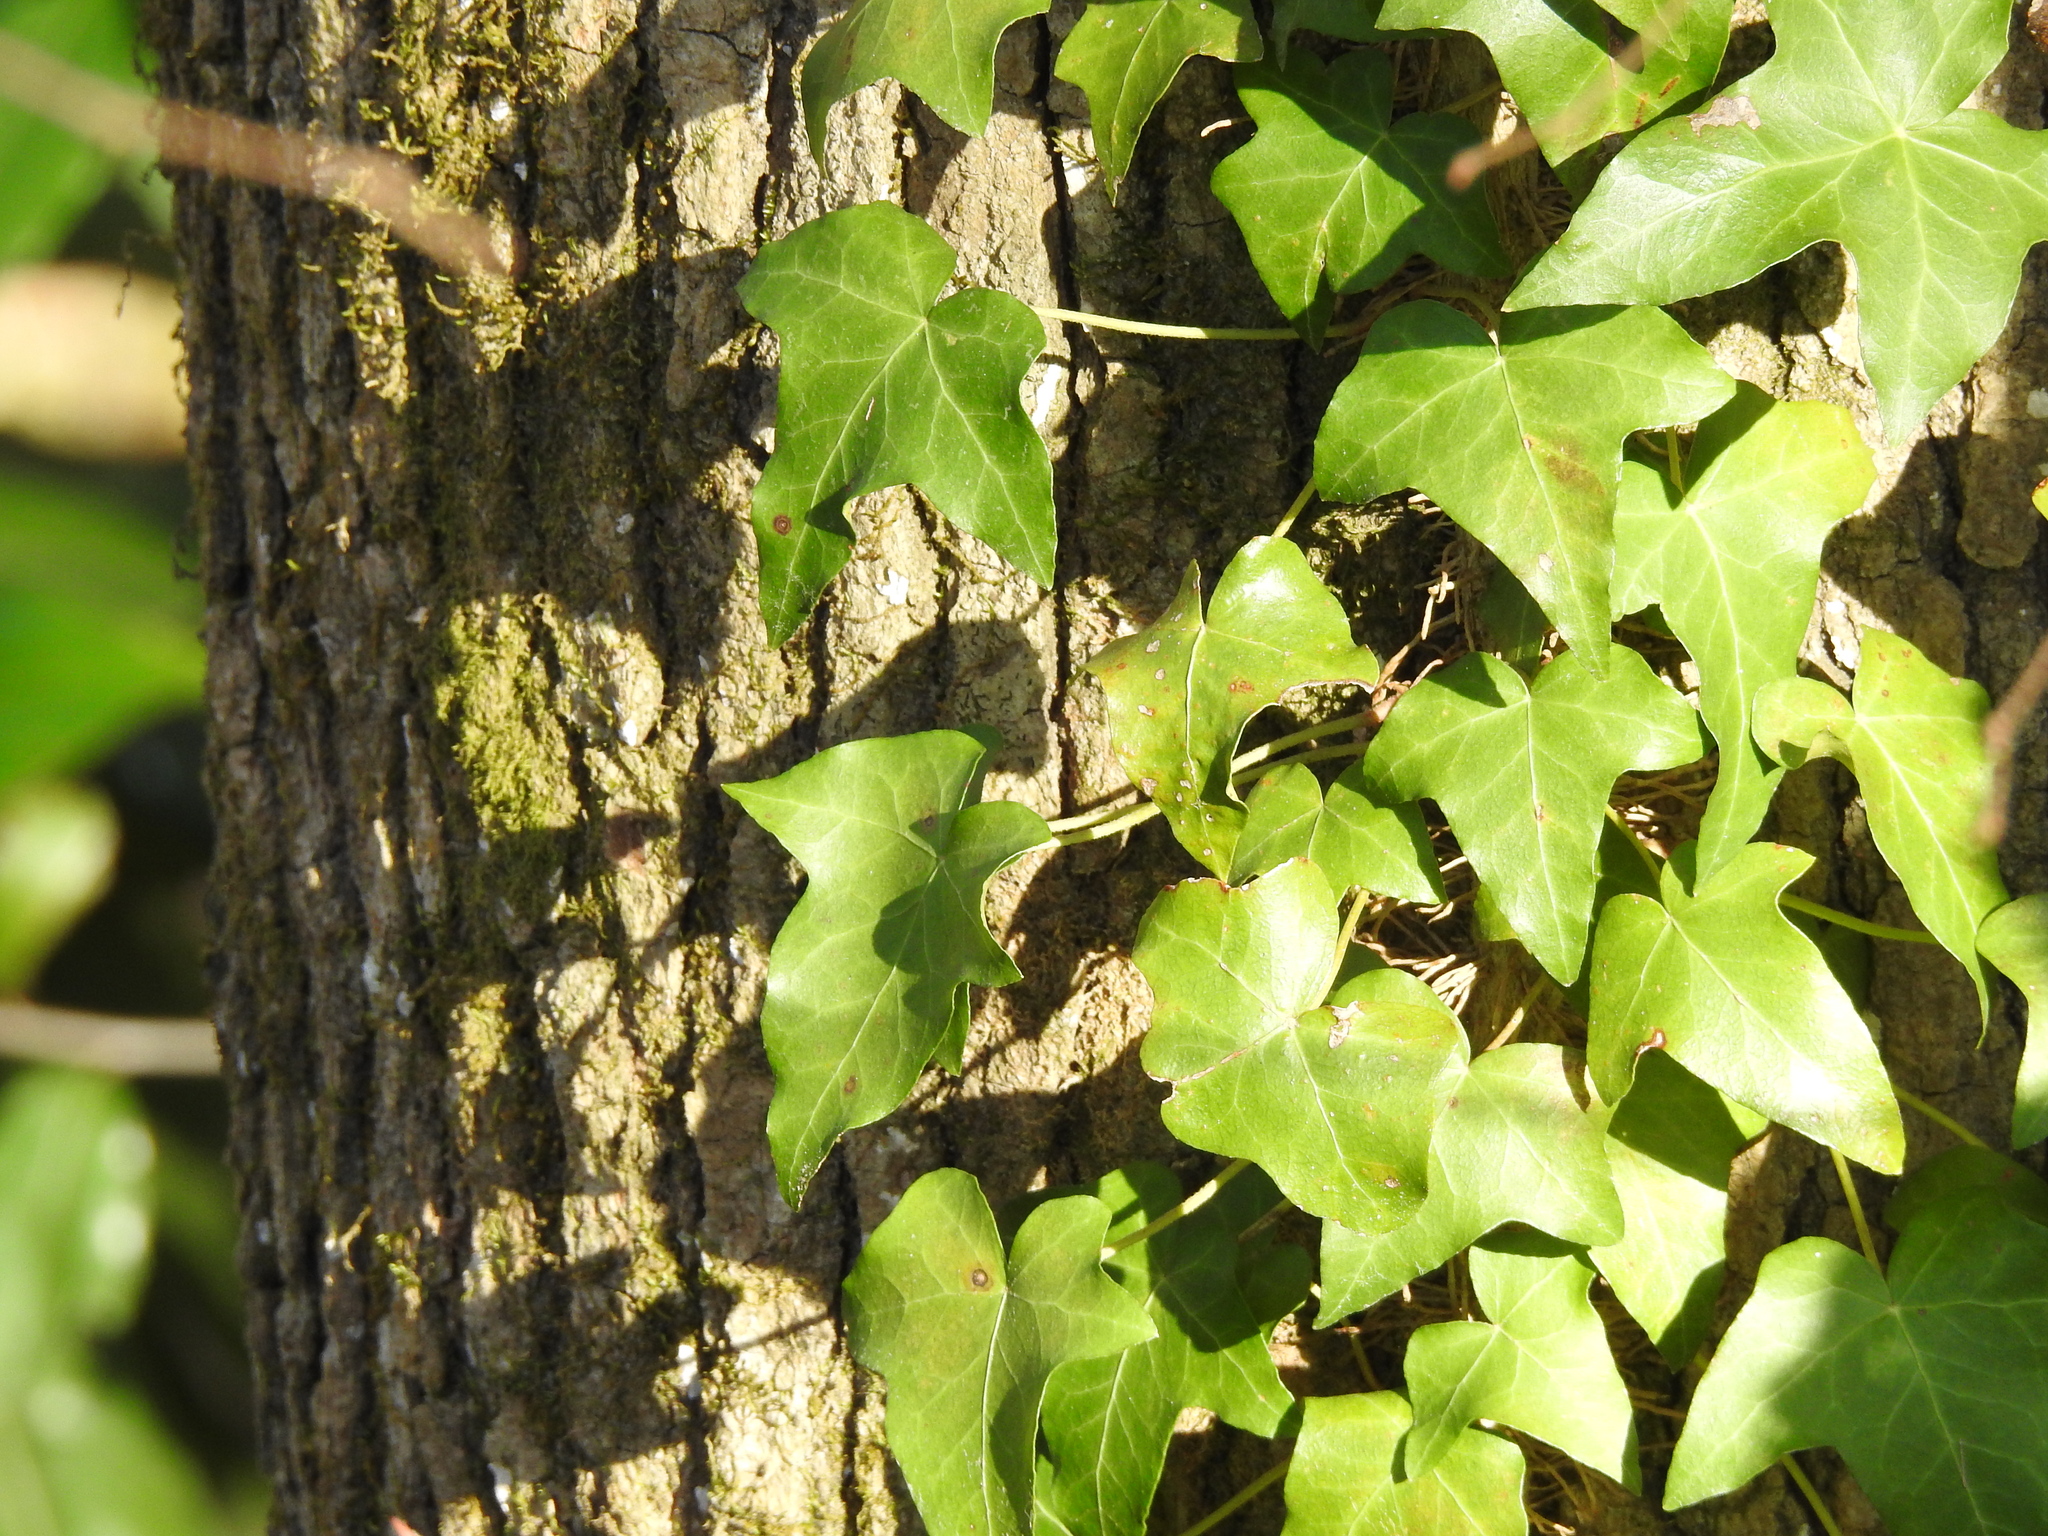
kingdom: Plantae
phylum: Tracheophyta
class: Magnoliopsida
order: Apiales
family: Araliaceae
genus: Hedera
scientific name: Hedera helix
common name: Ivy
